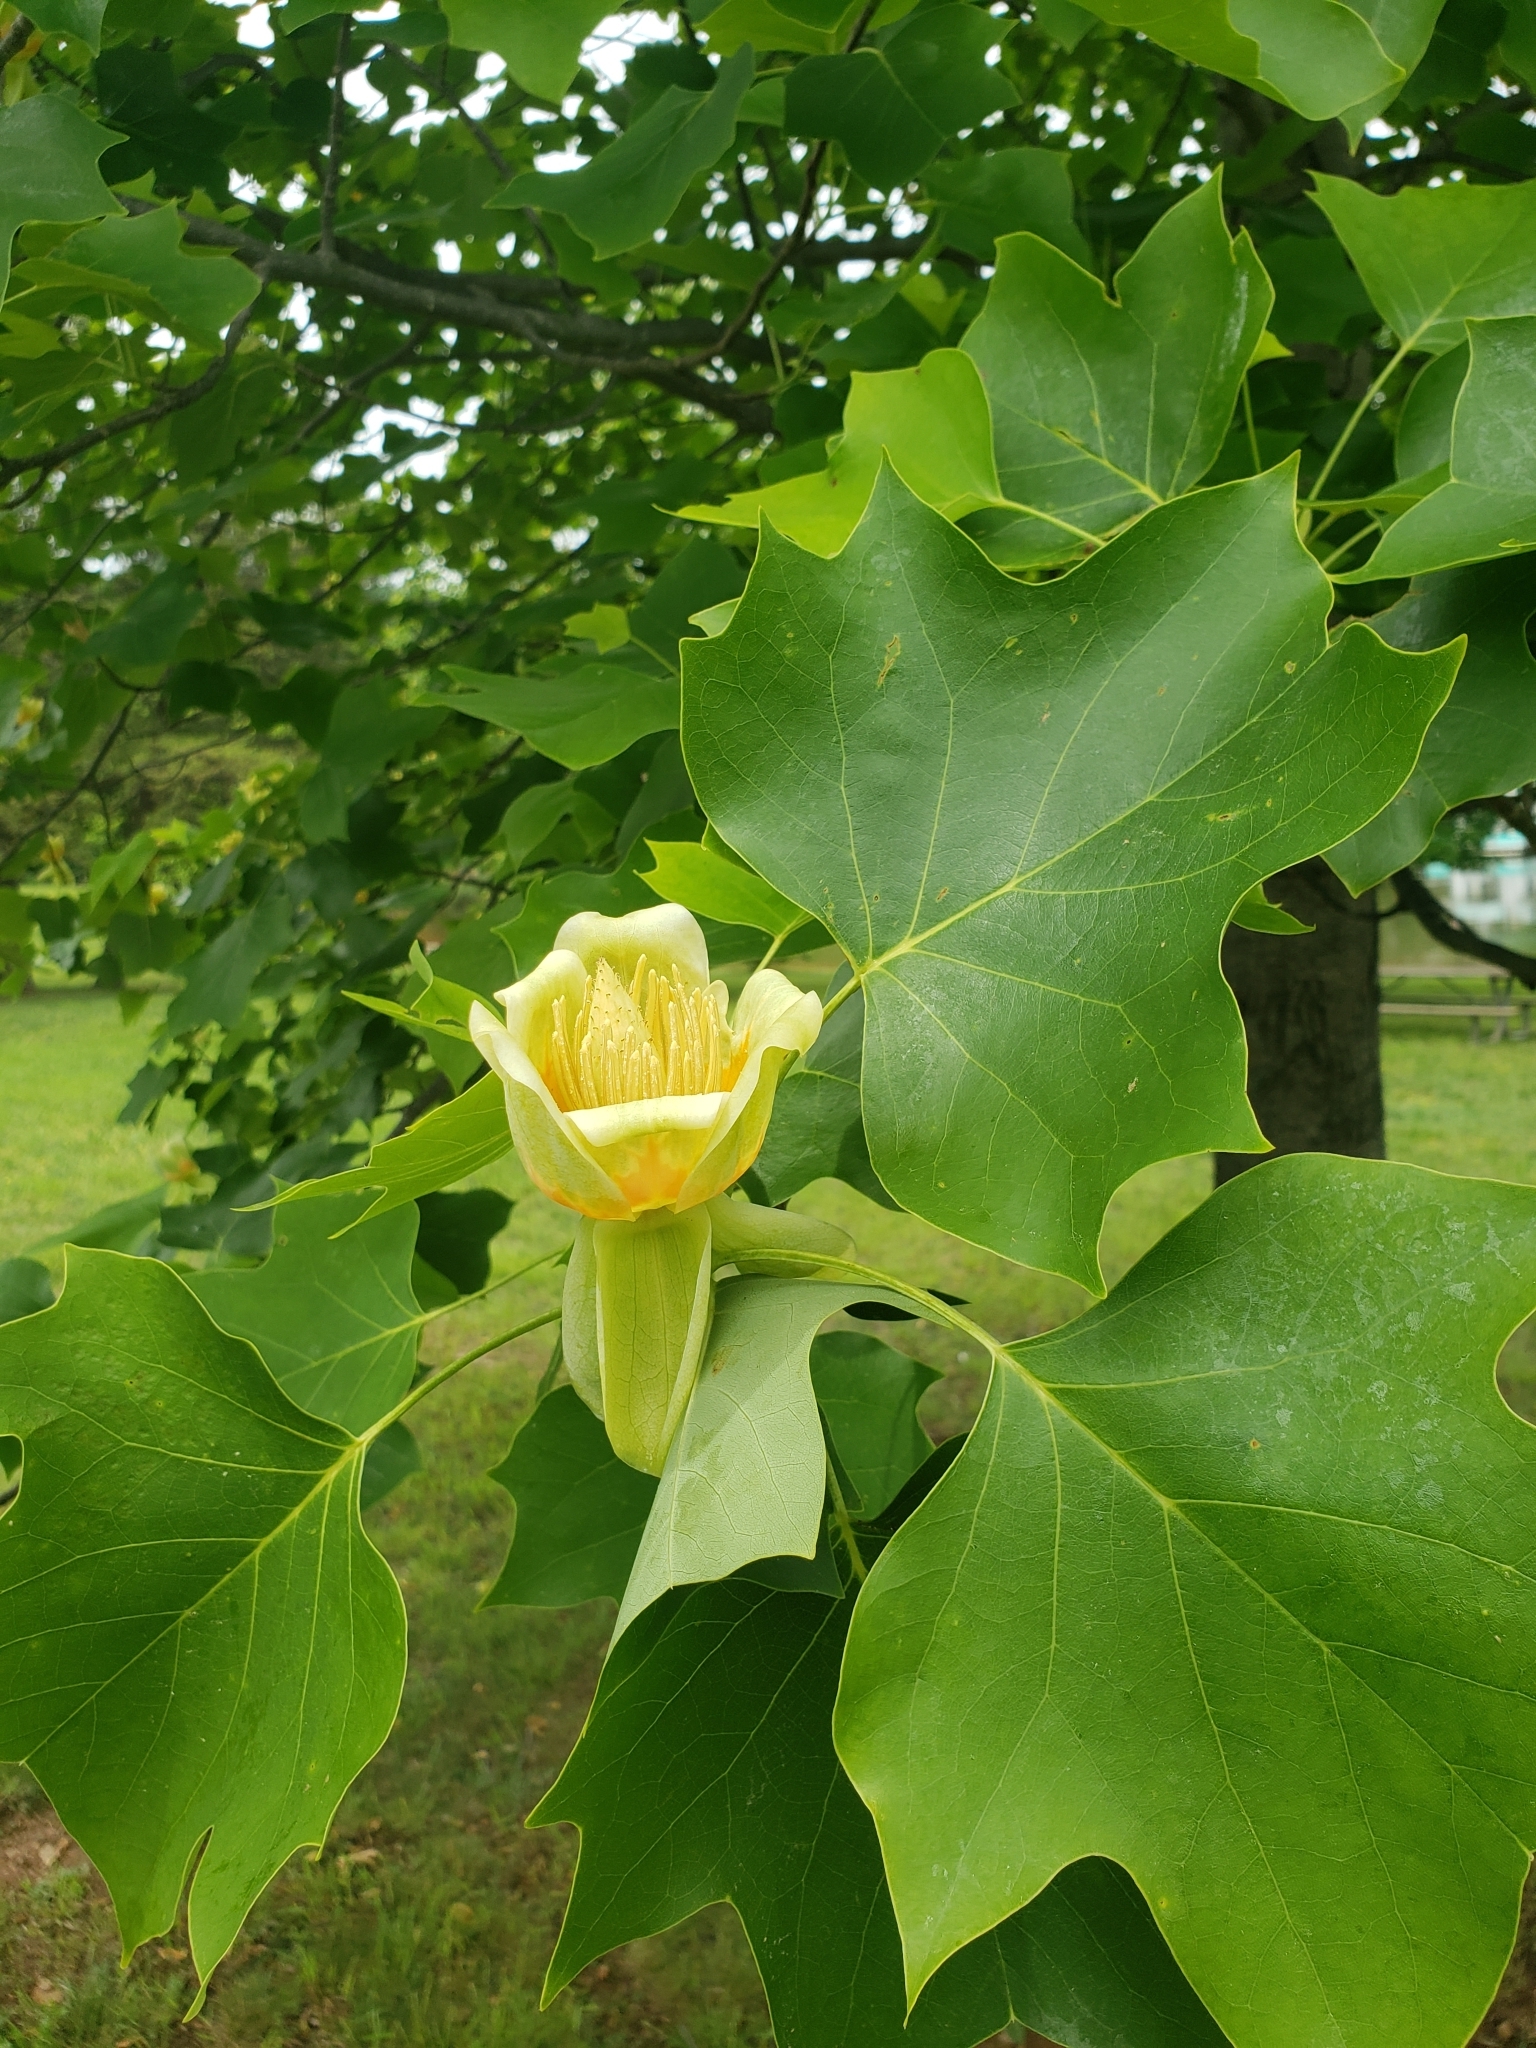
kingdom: Plantae
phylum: Tracheophyta
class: Magnoliopsida
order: Magnoliales
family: Magnoliaceae
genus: Liriodendron
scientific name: Liriodendron tulipifera
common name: Tulip tree
